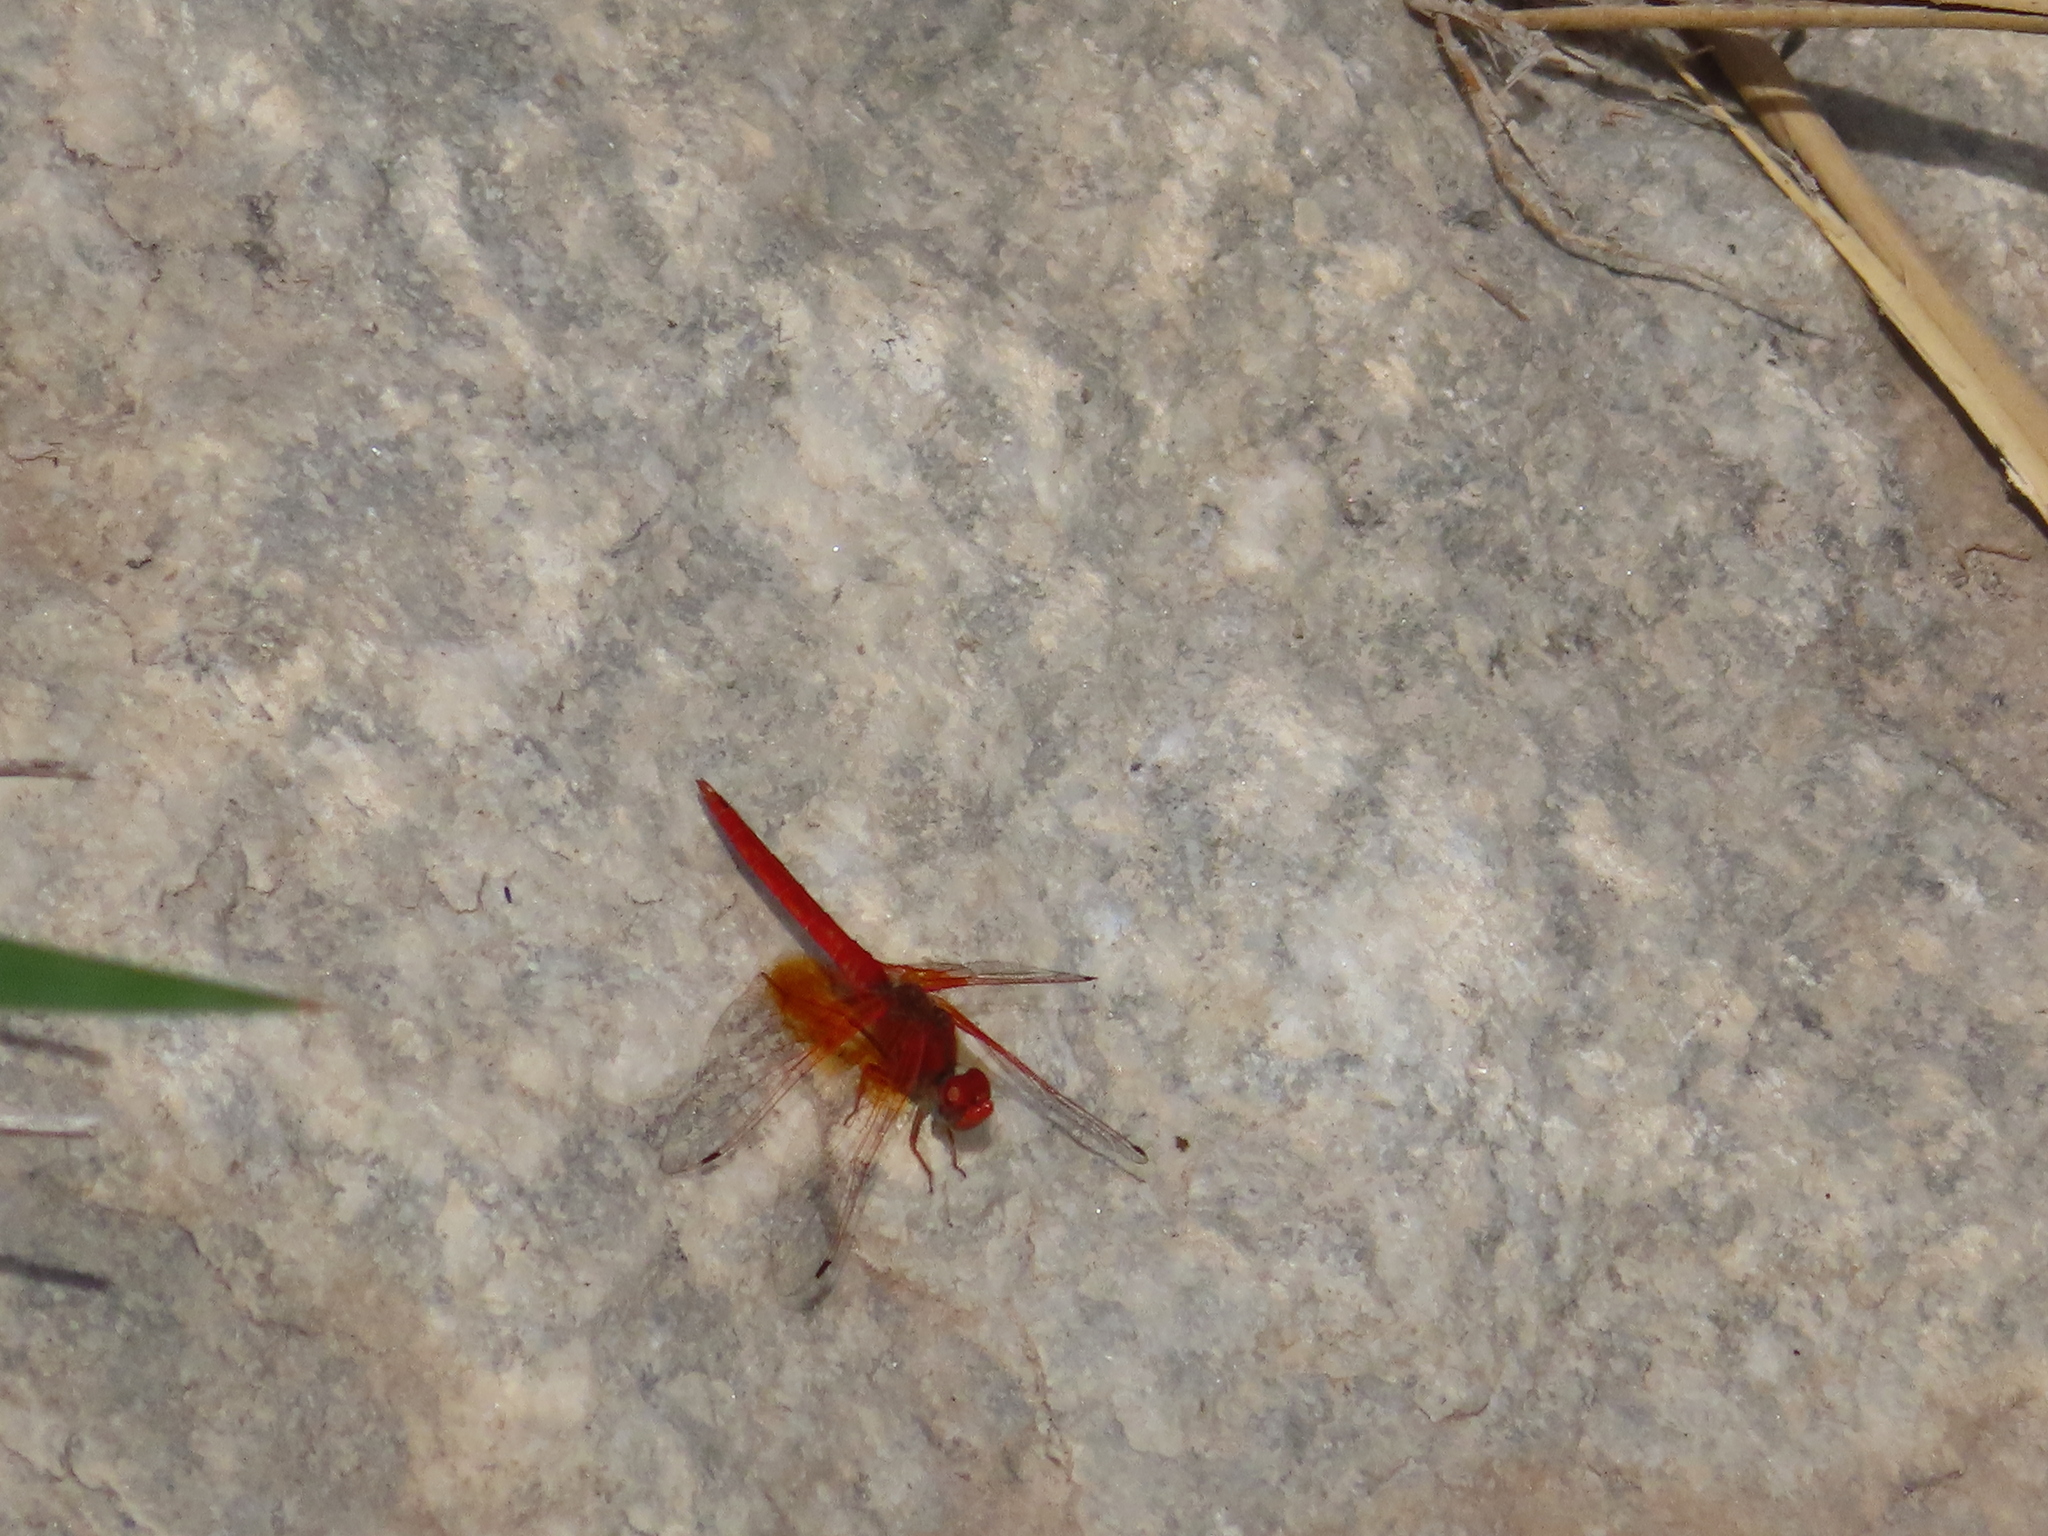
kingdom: Animalia
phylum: Arthropoda
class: Insecta
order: Odonata
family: Libellulidae
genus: Trithemis
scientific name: Trithemis kirbyi
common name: Kirby's dropwing
